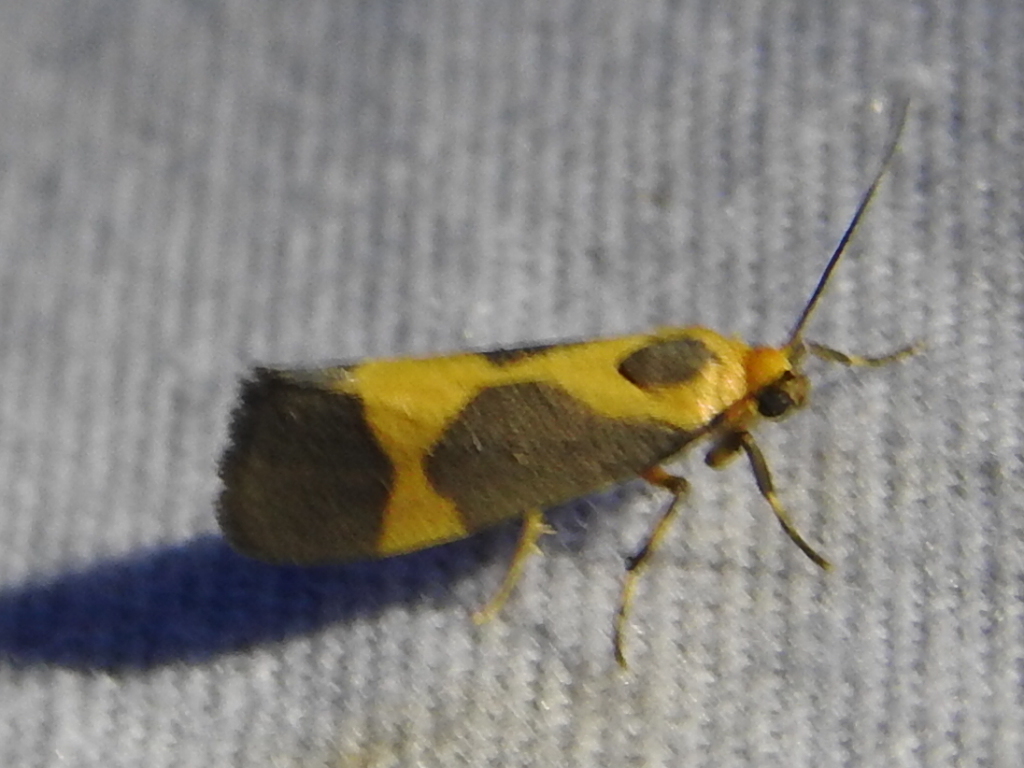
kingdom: Animalia
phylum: Arthropoda
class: Insecta
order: Lepidoptera
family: Erebidae
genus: Cisthene
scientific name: Cisthene unifascia
